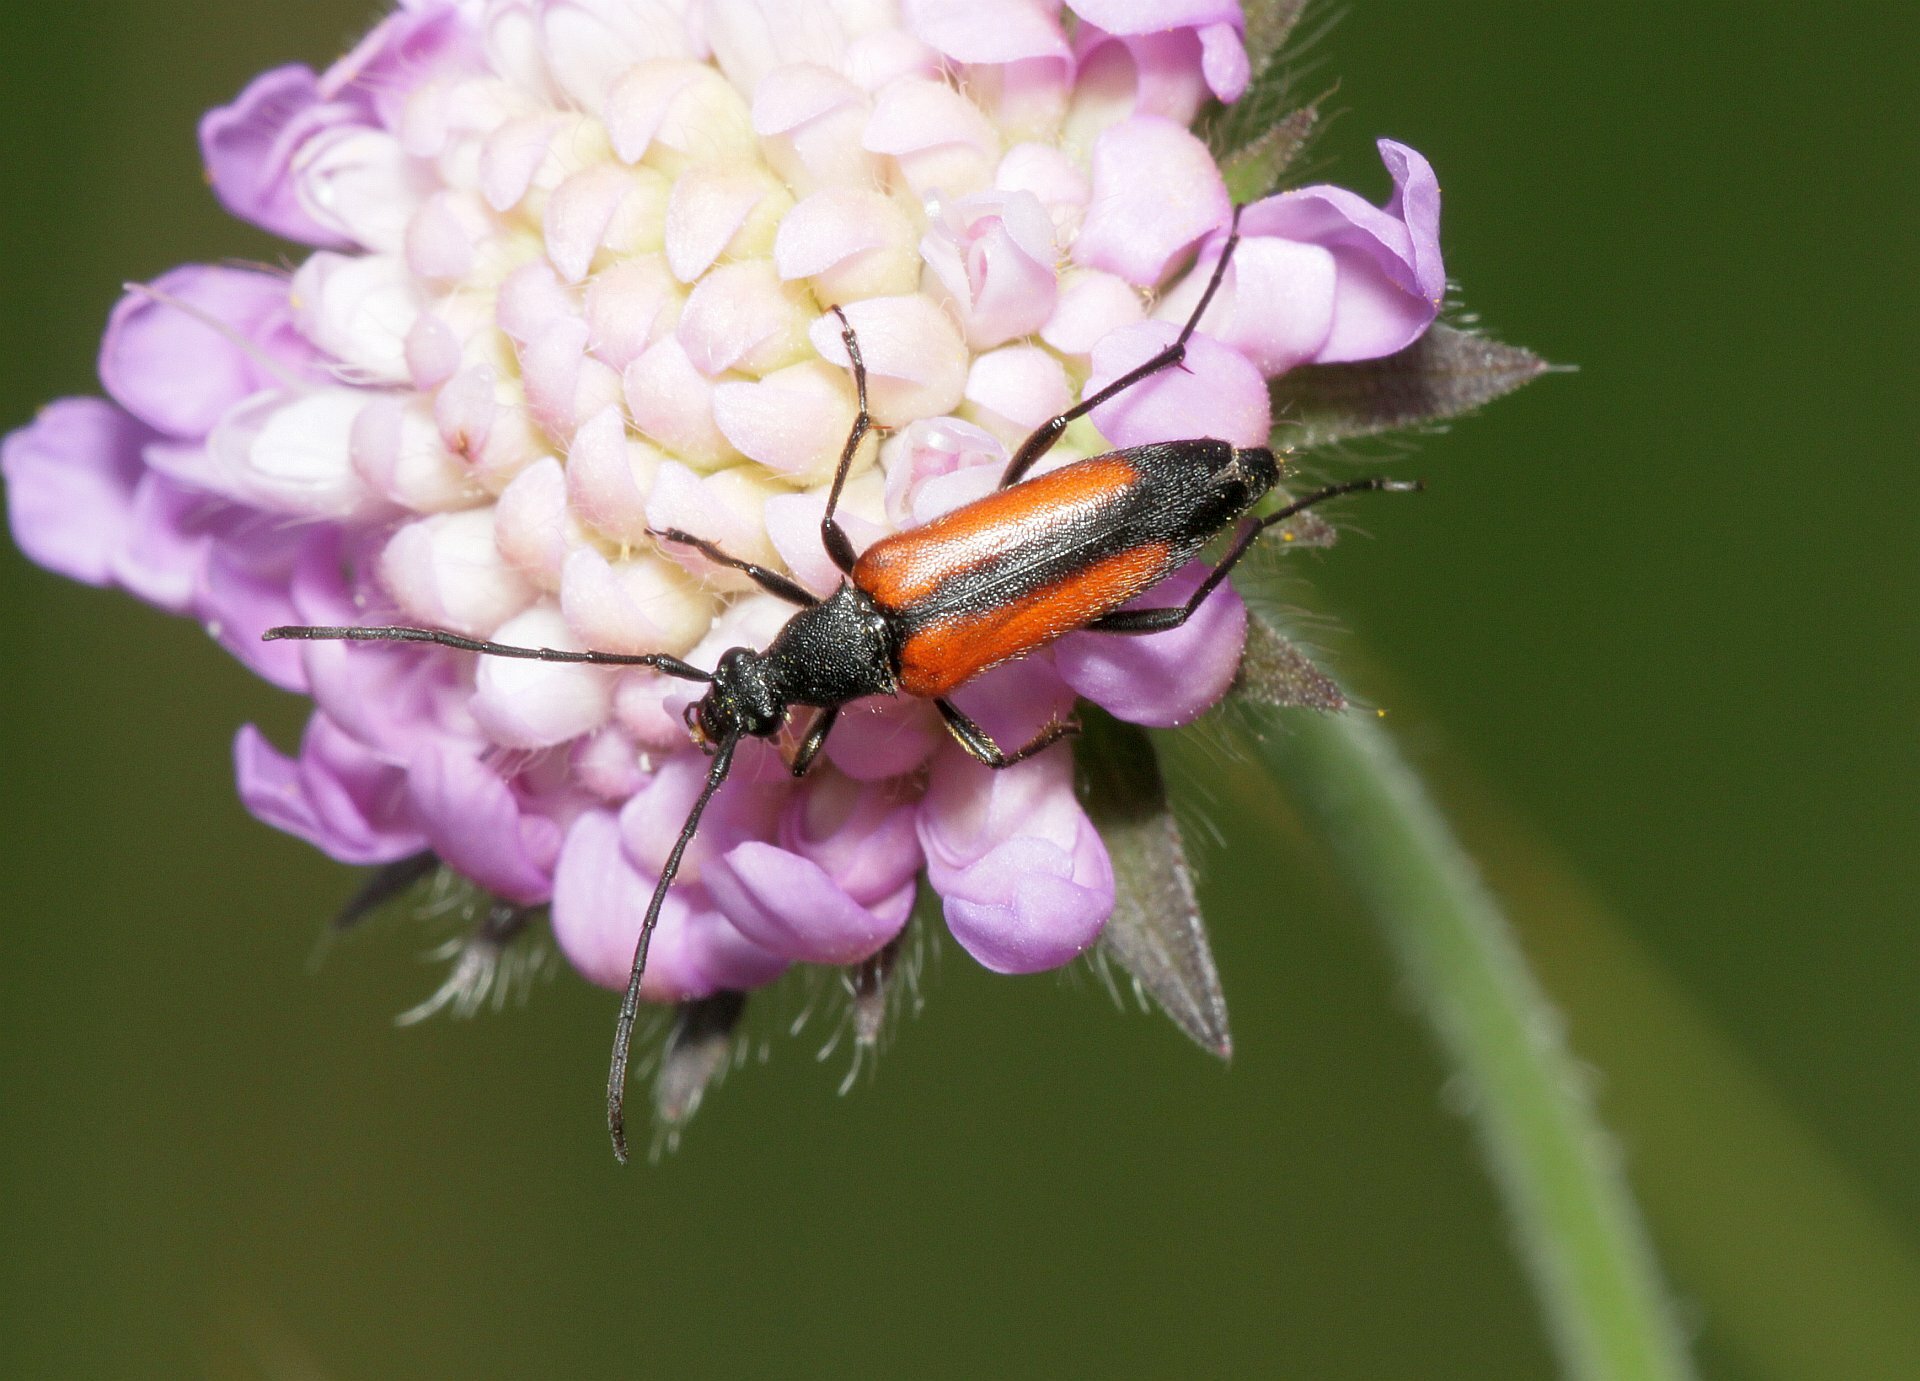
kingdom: Animalia
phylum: Arthropoda
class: Insecta
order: Coleoptera
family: Cerambycidae
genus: Stenurella
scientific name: Stenurella melanura
